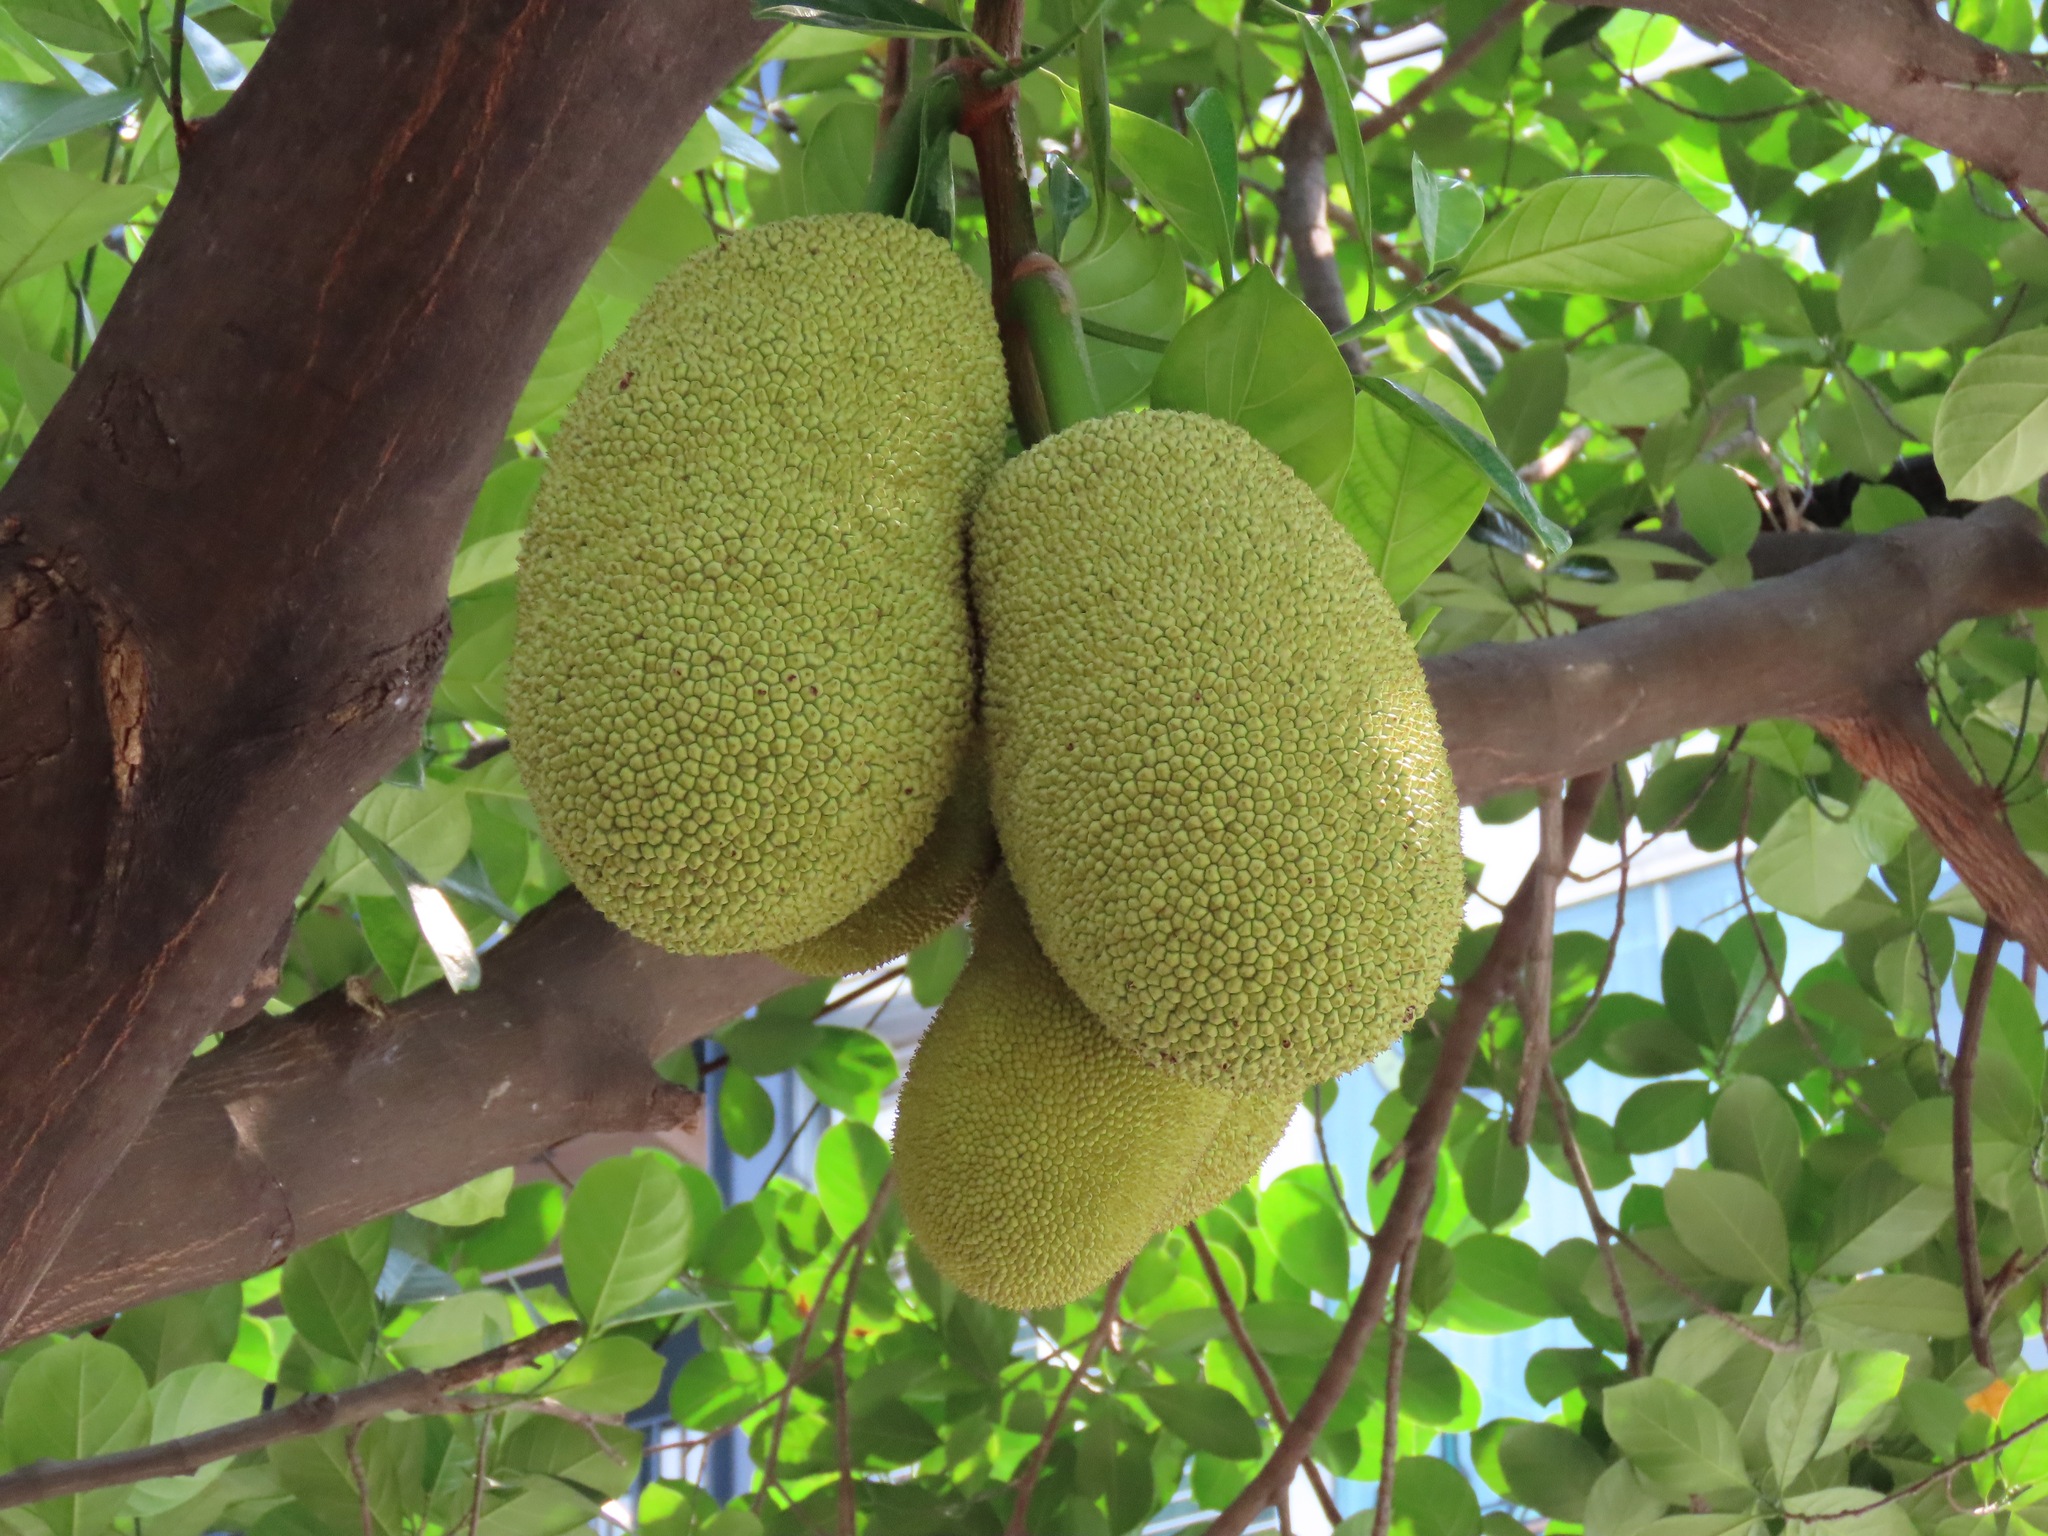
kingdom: Plantae
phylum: Tracheophyta
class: Magnoliopsida
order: Rosales
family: Moraceae
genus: Artocarpus
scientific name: Artocarpus heterophyllus
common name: Jackfruit
